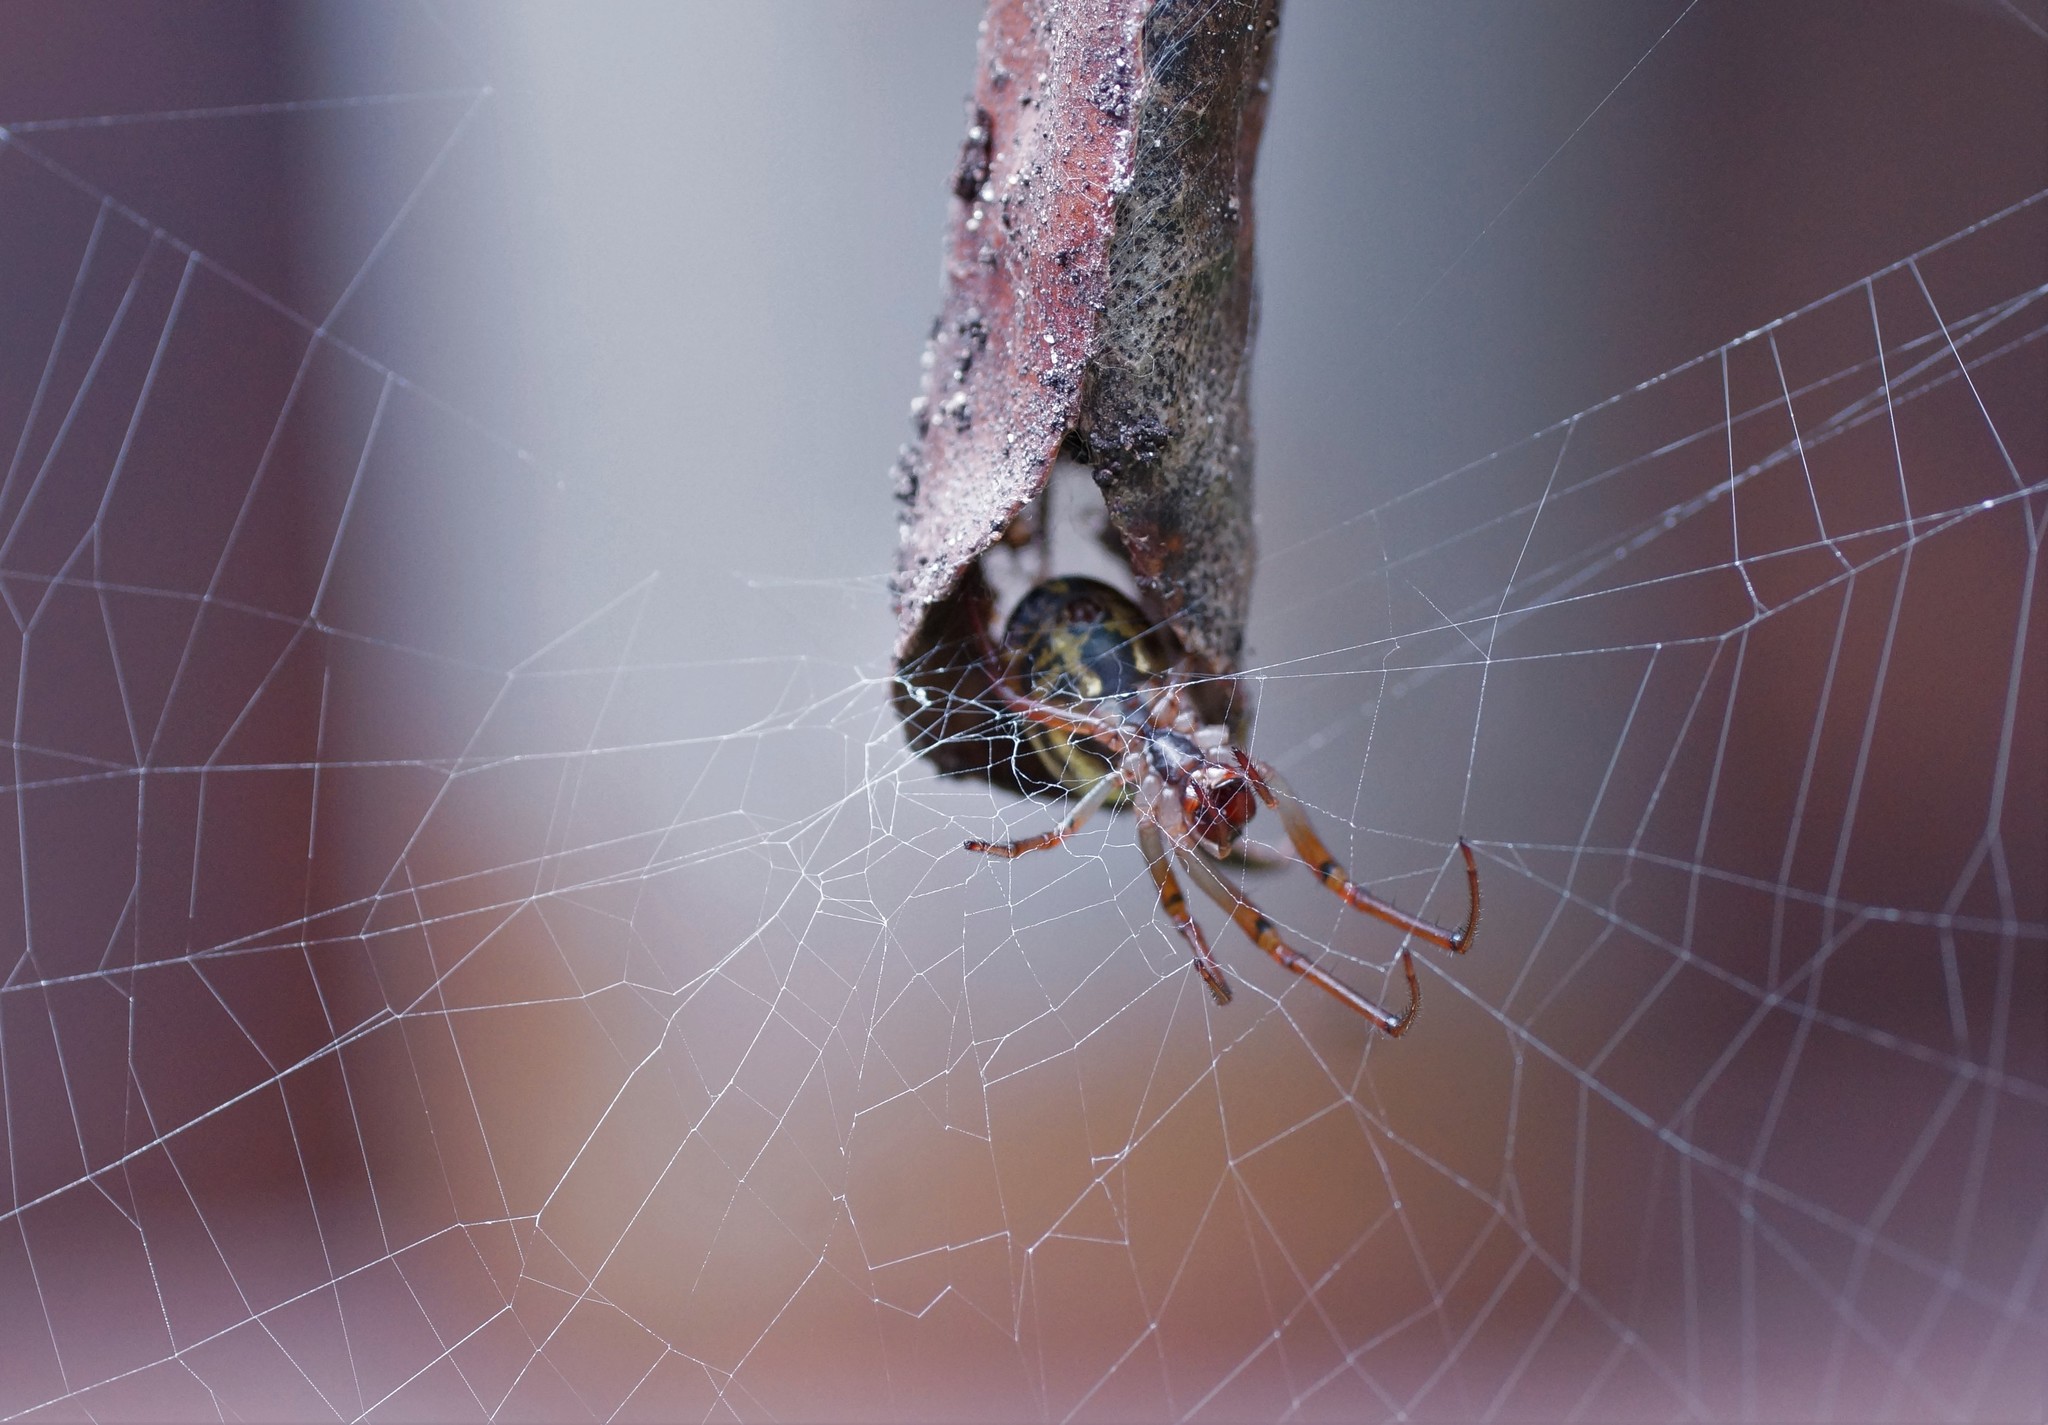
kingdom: Animalia
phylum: Arthropoda
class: Arachnida
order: Araneae
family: Araneidae
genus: Phonognatha
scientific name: Phonognatha graeffei
